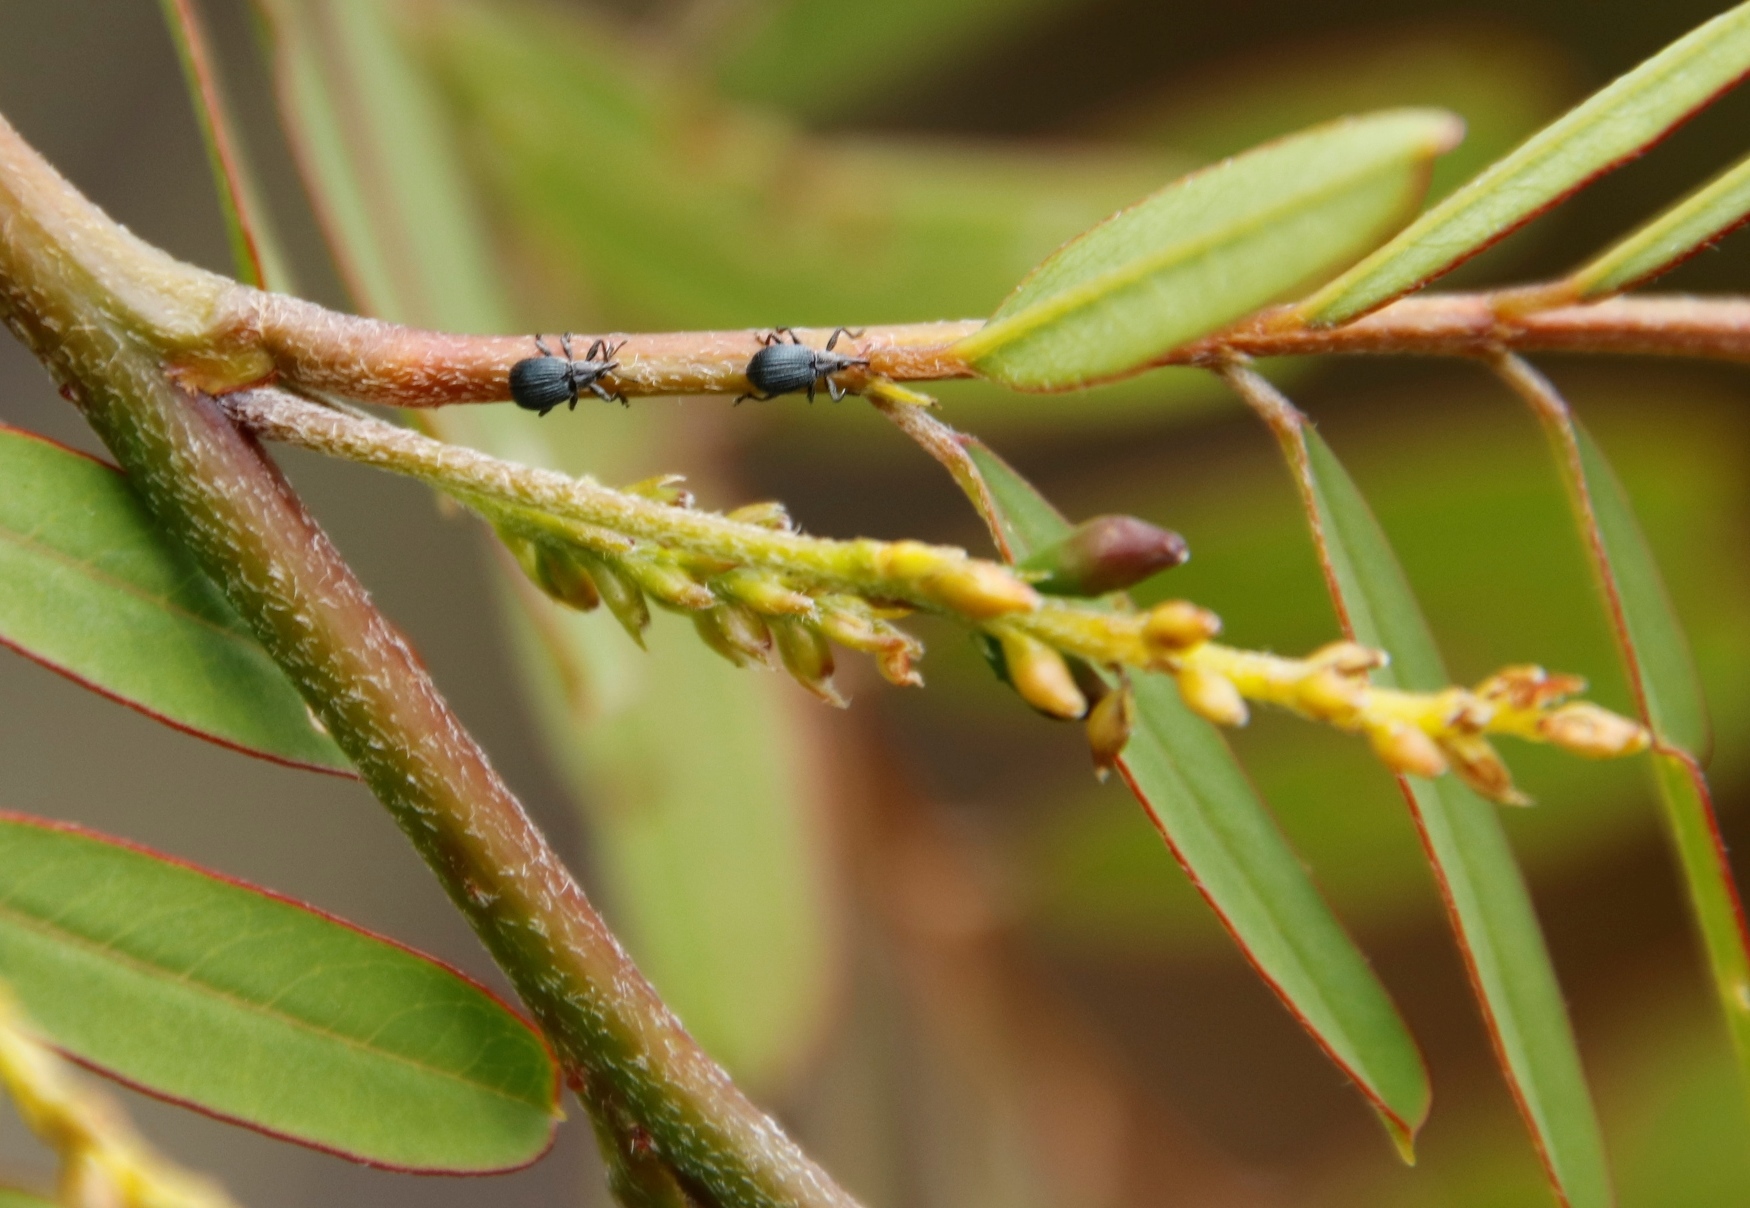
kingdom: Plantae
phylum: Tracheophyta
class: Magnoliopsida
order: Fabales
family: Fabaceae
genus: Sesbania
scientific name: Sesbania punicea
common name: Rattlebox
